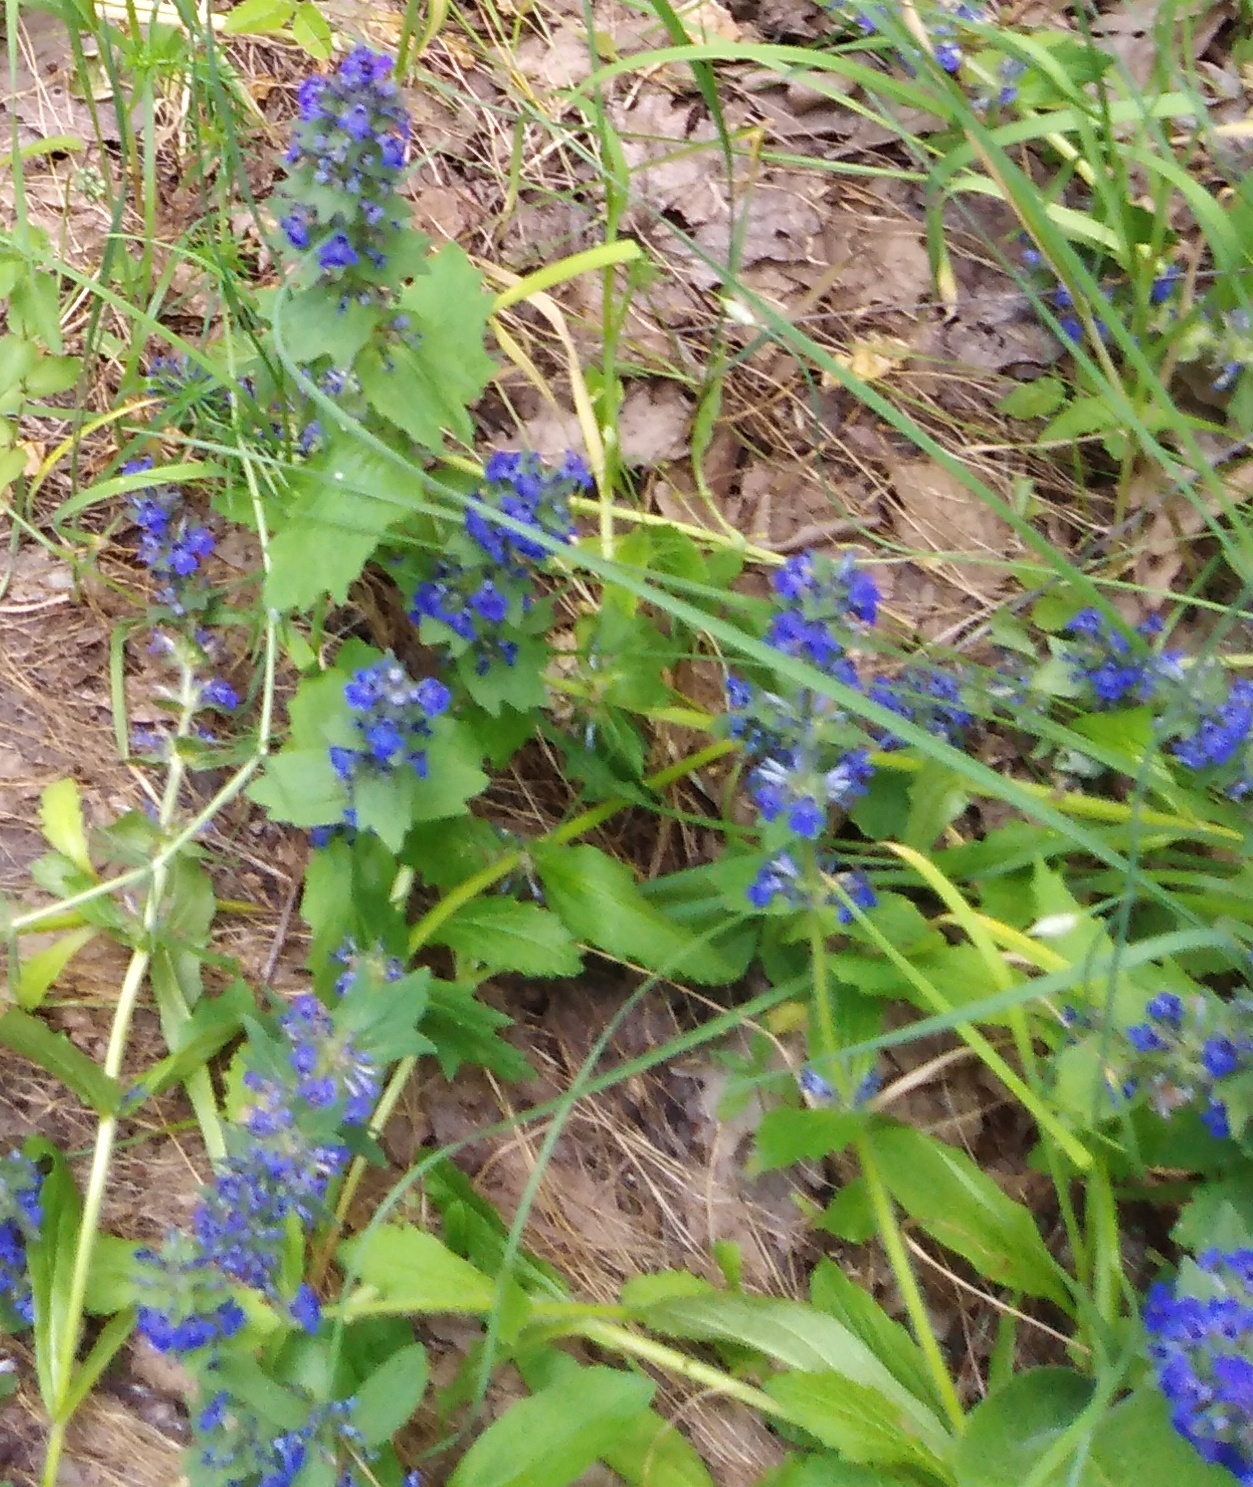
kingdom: Plantae
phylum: Tracheophyta
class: Magnoliopsida
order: Lamiales
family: Lamiaceae
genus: Ajuga
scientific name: Ajuga genevensis
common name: Blue bugle
